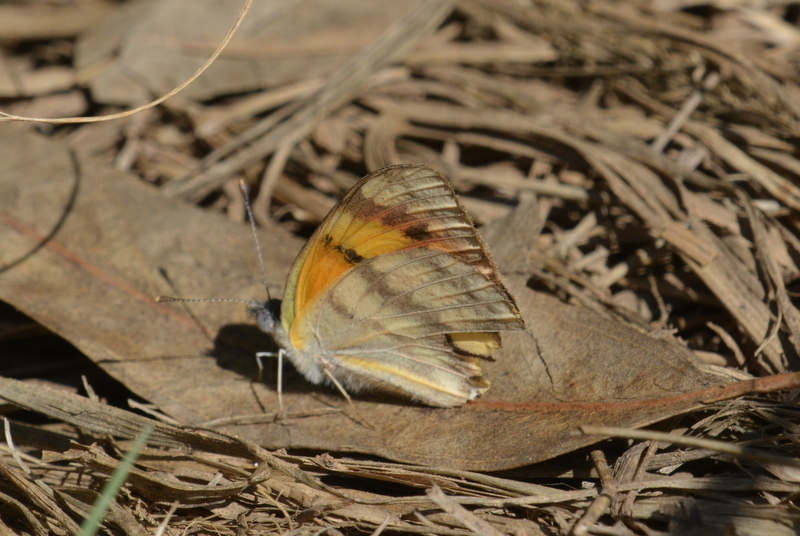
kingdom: Animalia
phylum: Arthropoda
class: Insecta
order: Lepidoptera
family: Pieridae
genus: Colotis
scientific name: Colotis vesta
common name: Veined golden arab
